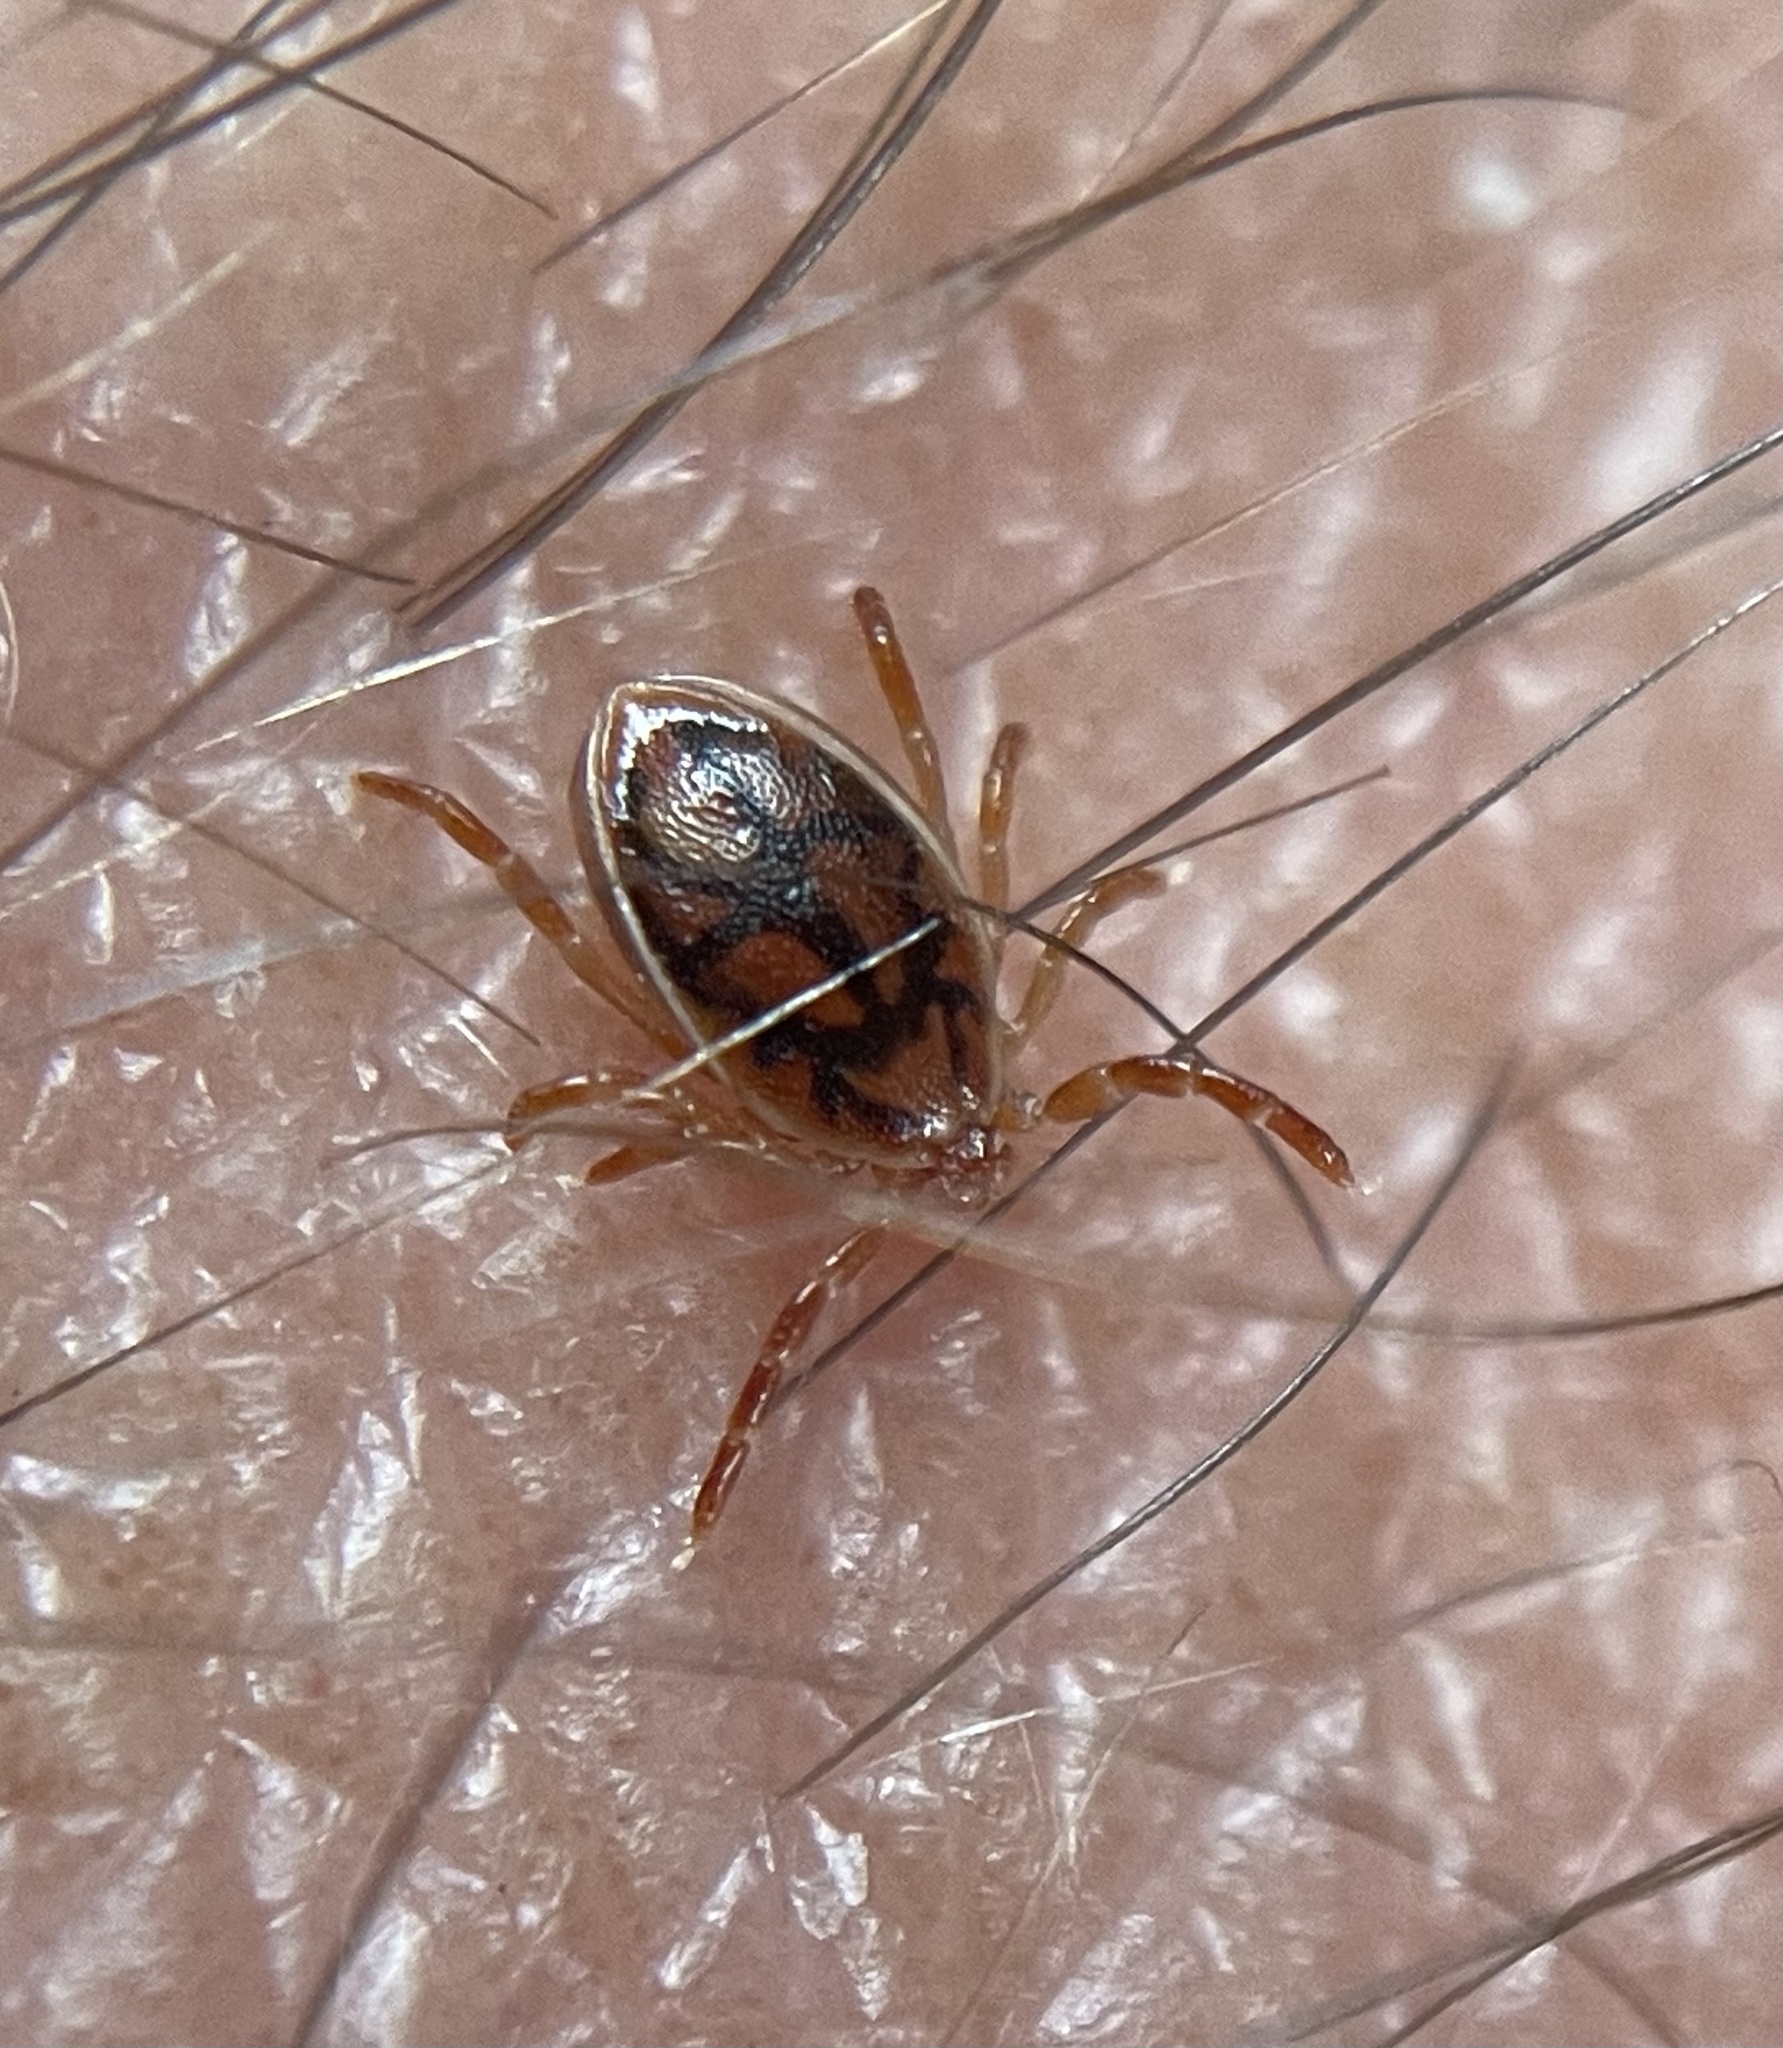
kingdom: Animalia
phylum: Arthropoda
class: Arachnida
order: Ixodida
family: Ixodidae
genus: Ixodes
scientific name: Ixodes cornuatus
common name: Tasmanian paralysis tick
